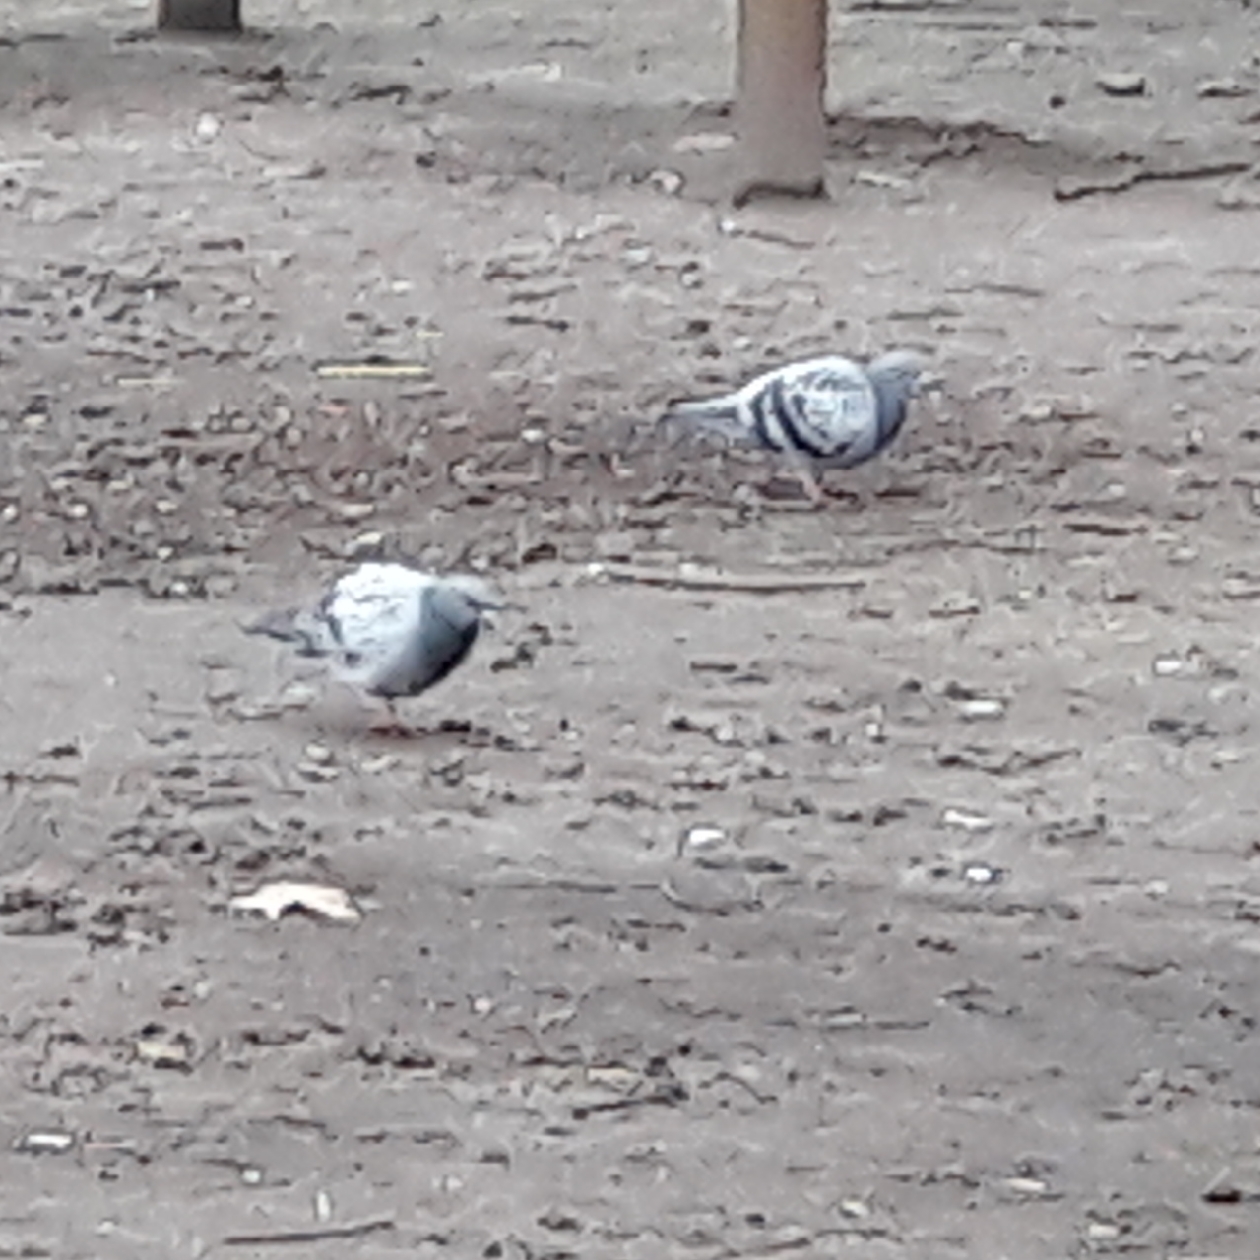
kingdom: Animalia
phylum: Chordata
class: Aves
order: Columbiformes
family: Columbidae
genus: Columba
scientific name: Columba livia
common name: Rock pigeon
